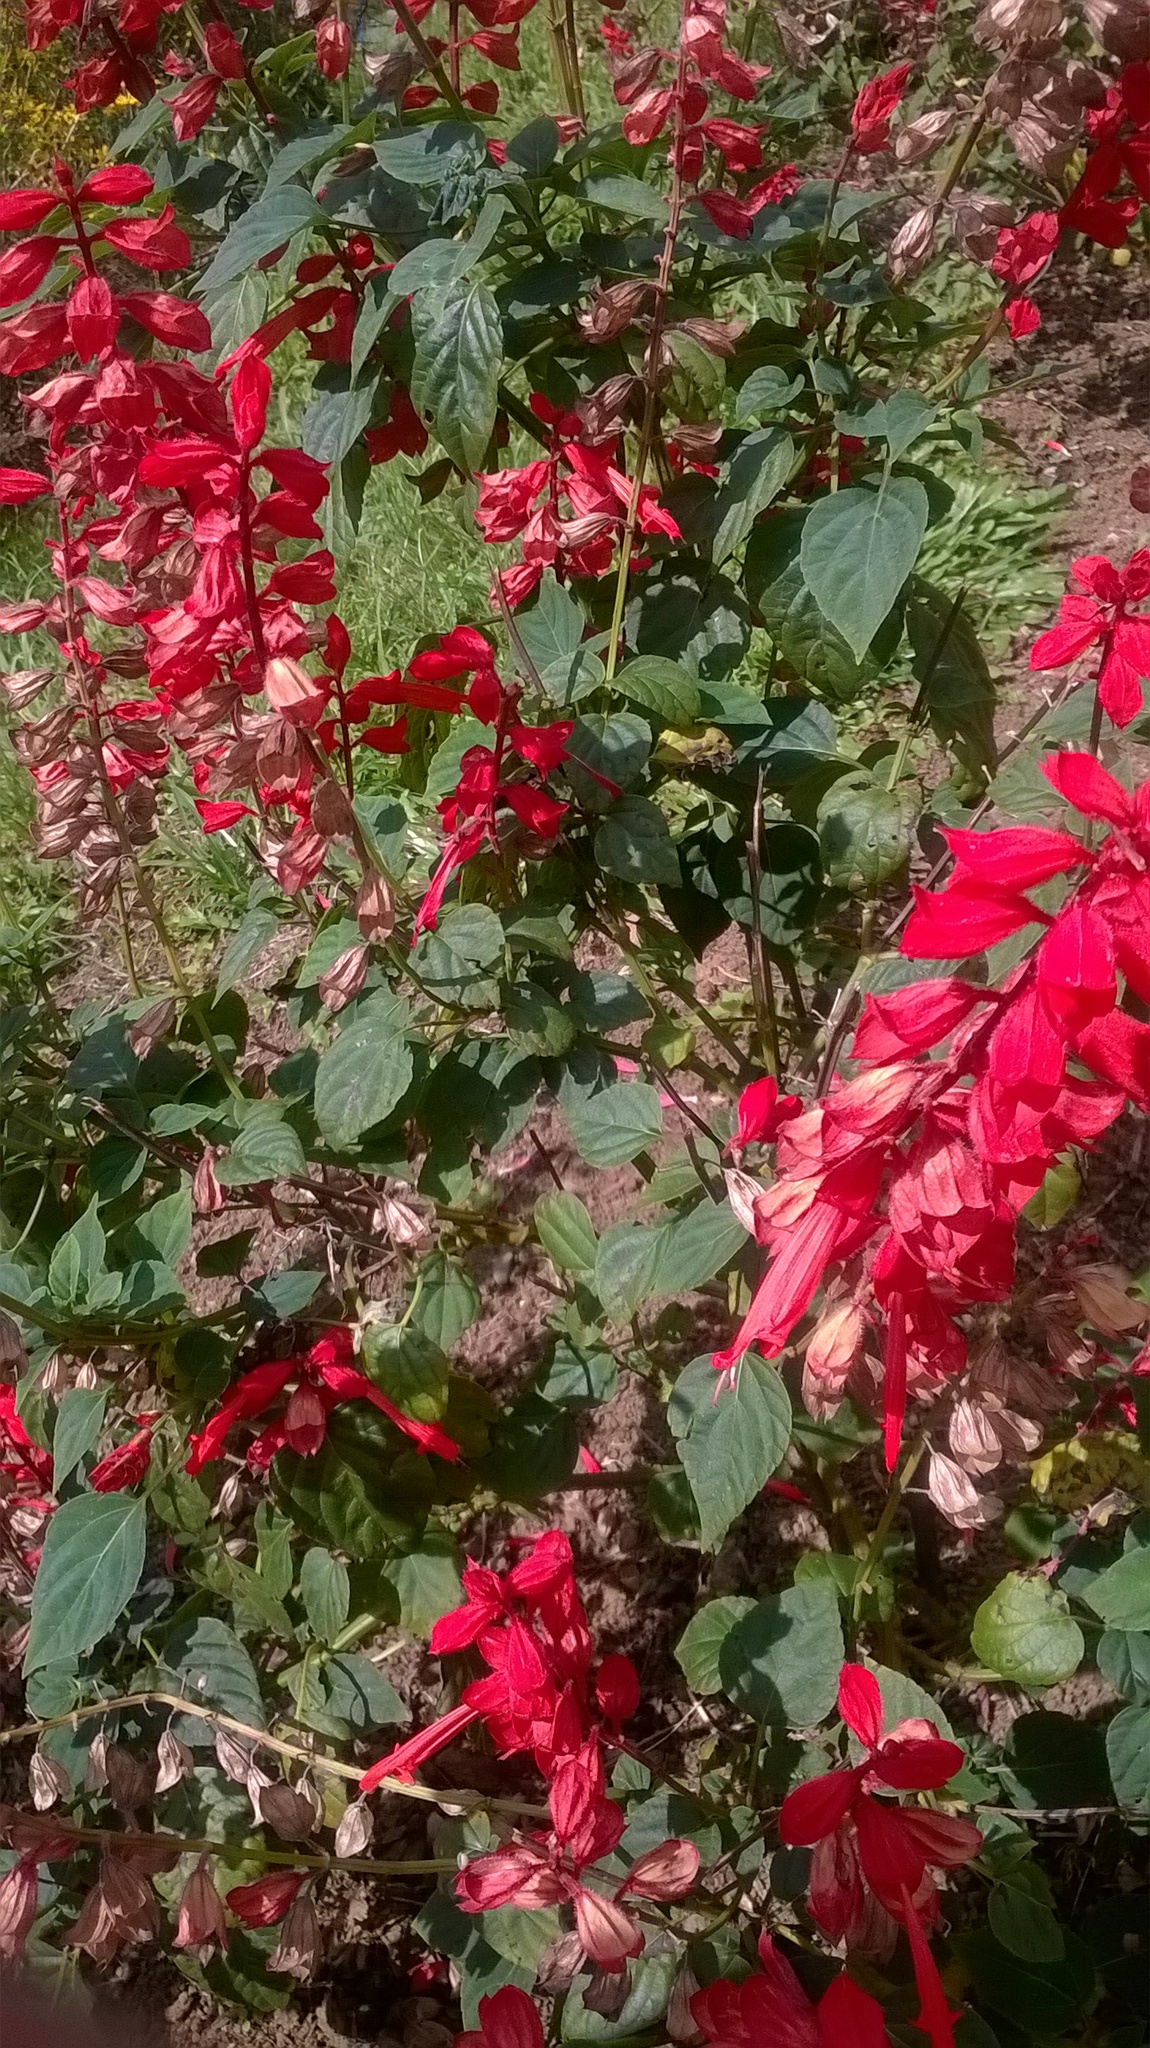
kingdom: Plantae
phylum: Tracheophyta
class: Magnoliopsida
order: Lamiales
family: Lamiaceae
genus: Salvia
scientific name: Salvia splendens
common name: Scarlet sage
